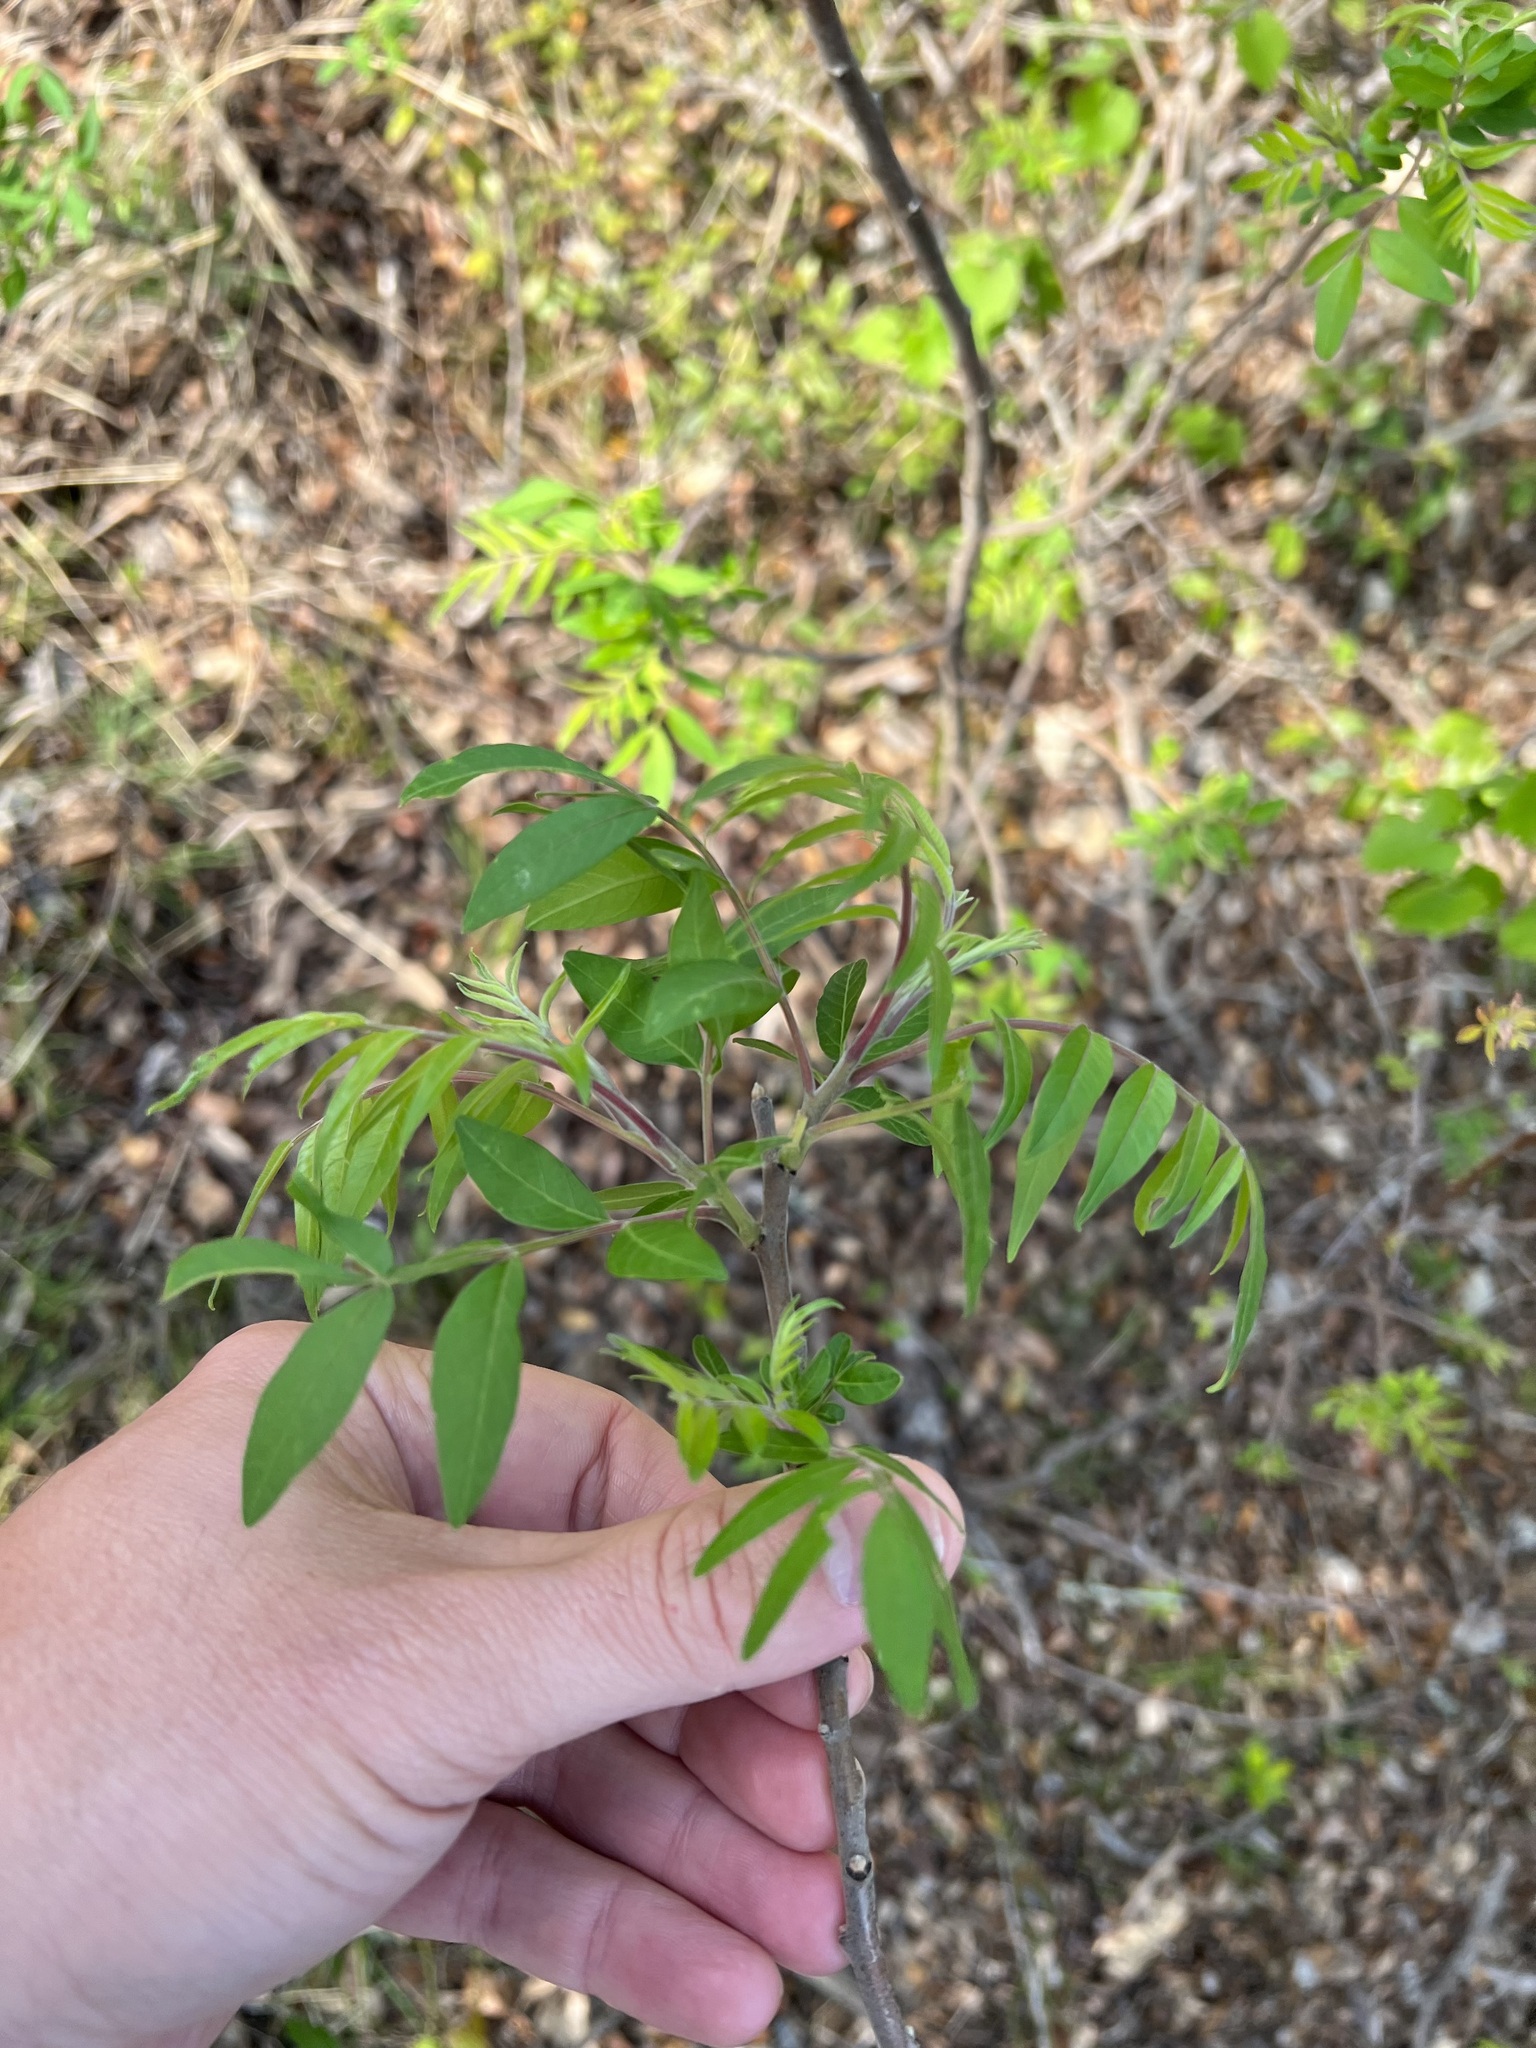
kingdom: Plantae
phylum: Tracheophyta
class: Magnoliopsida
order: Sapindales
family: Anacardiaceae
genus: Rhus
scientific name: Rhus lanceolata
